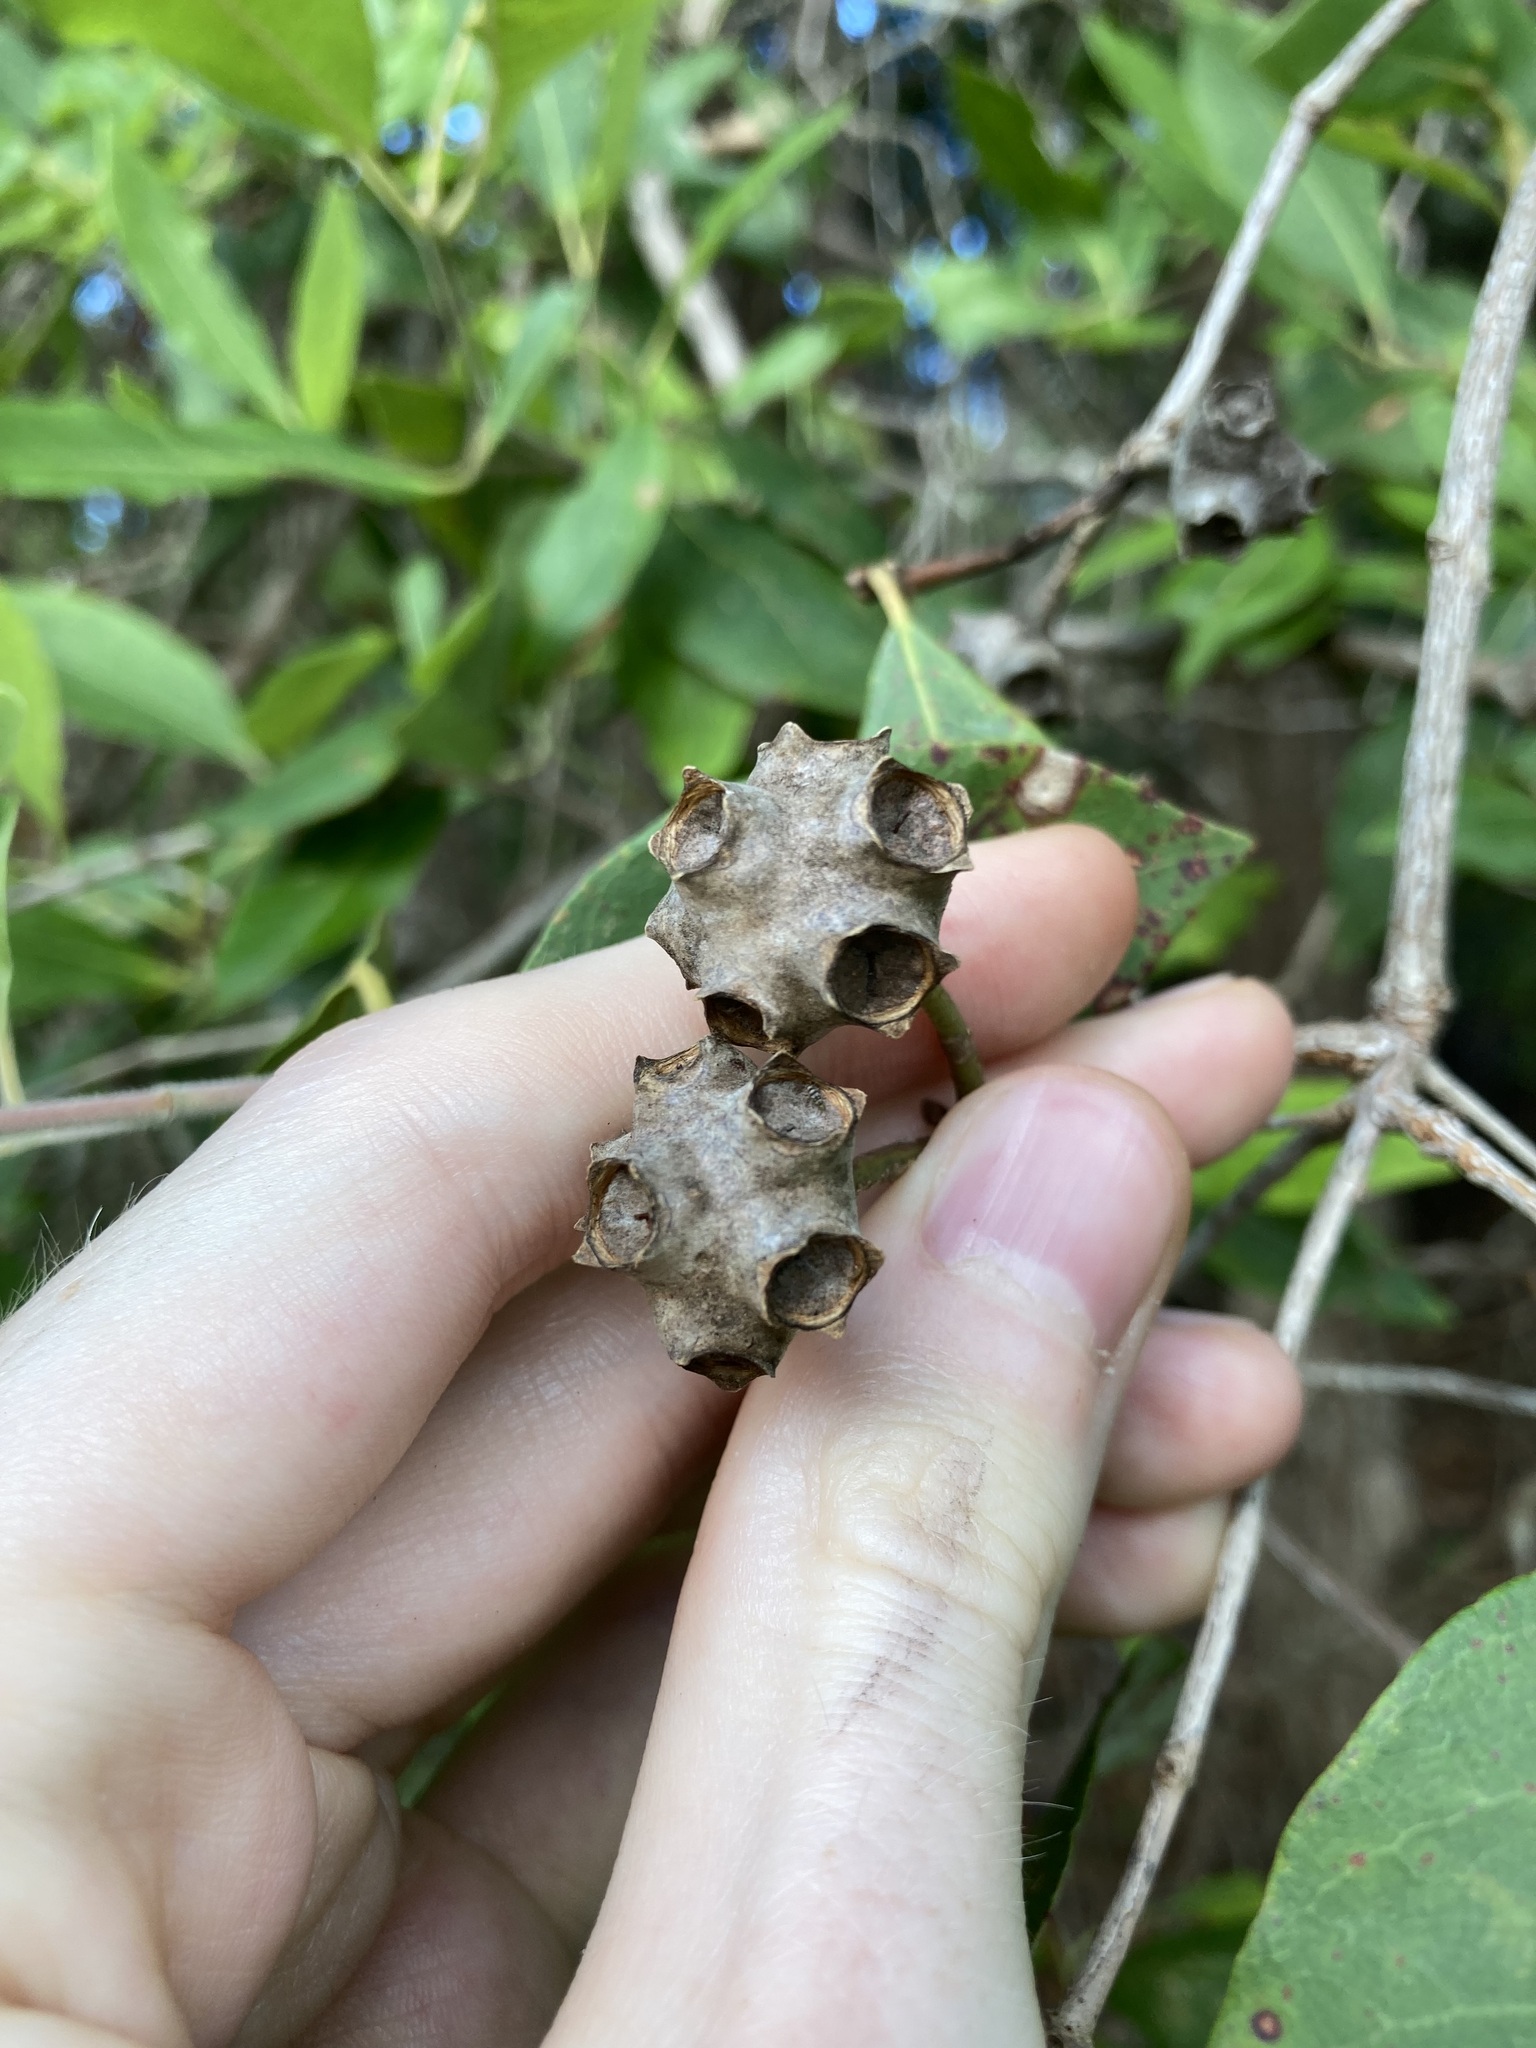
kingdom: Plantae
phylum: Tracheophyta
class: Magnoliopsida
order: Myrtales
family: Myrtaceae
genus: Syncarpia
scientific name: Syncarpia glomulifera
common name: Turpentine tree
